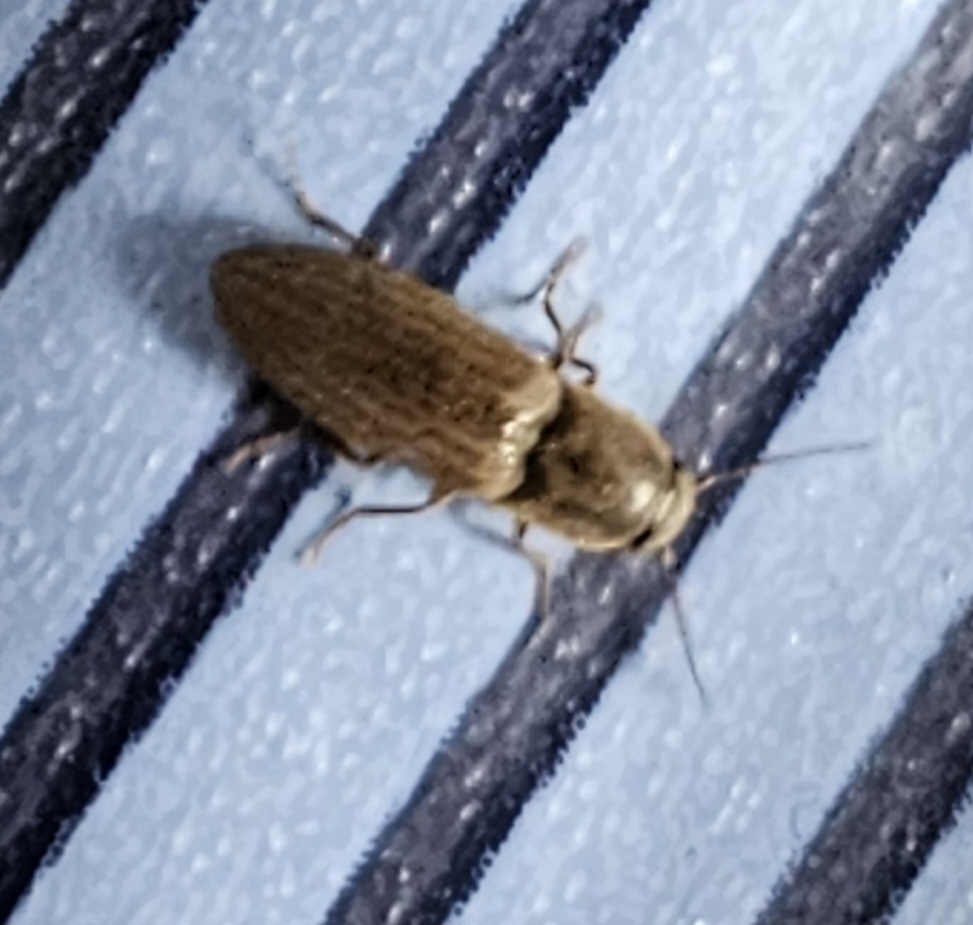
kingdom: Animalia
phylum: Arthropoda
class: Insecta
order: Coleoptera
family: Elateridae
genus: Agriotes
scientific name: Agriotes lineatus
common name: Lined click beetle
